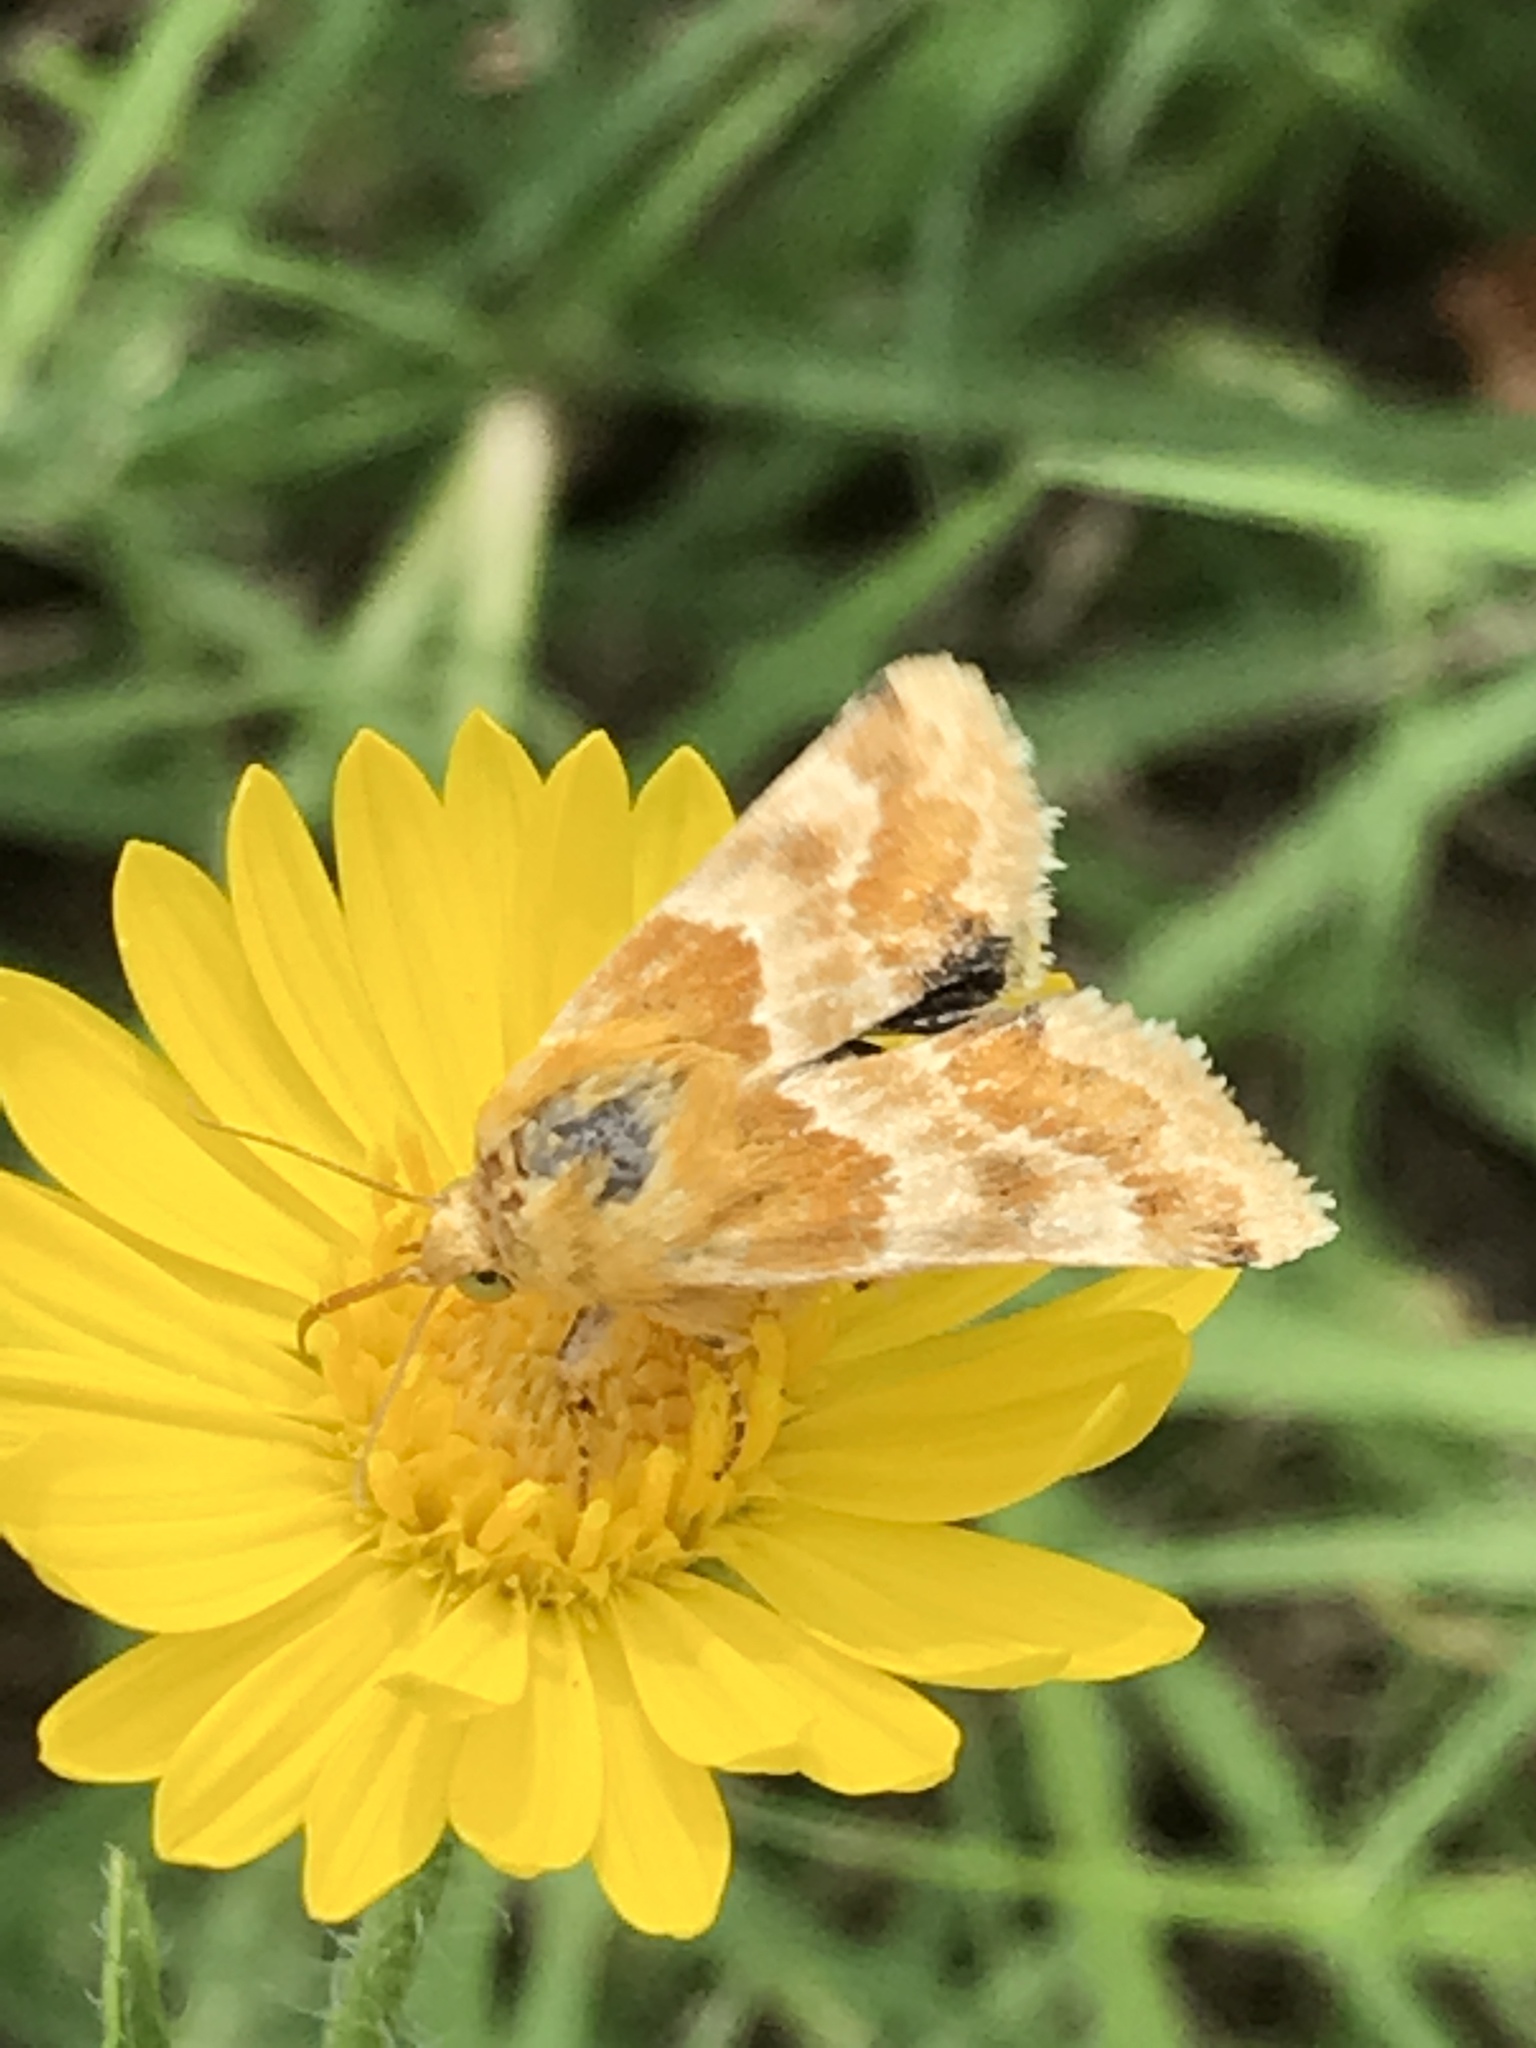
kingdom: Animalia
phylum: Arthropoda
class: Insecta
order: Lepidoptera
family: Noctuidae
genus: Schinia
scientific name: Schinia siren
